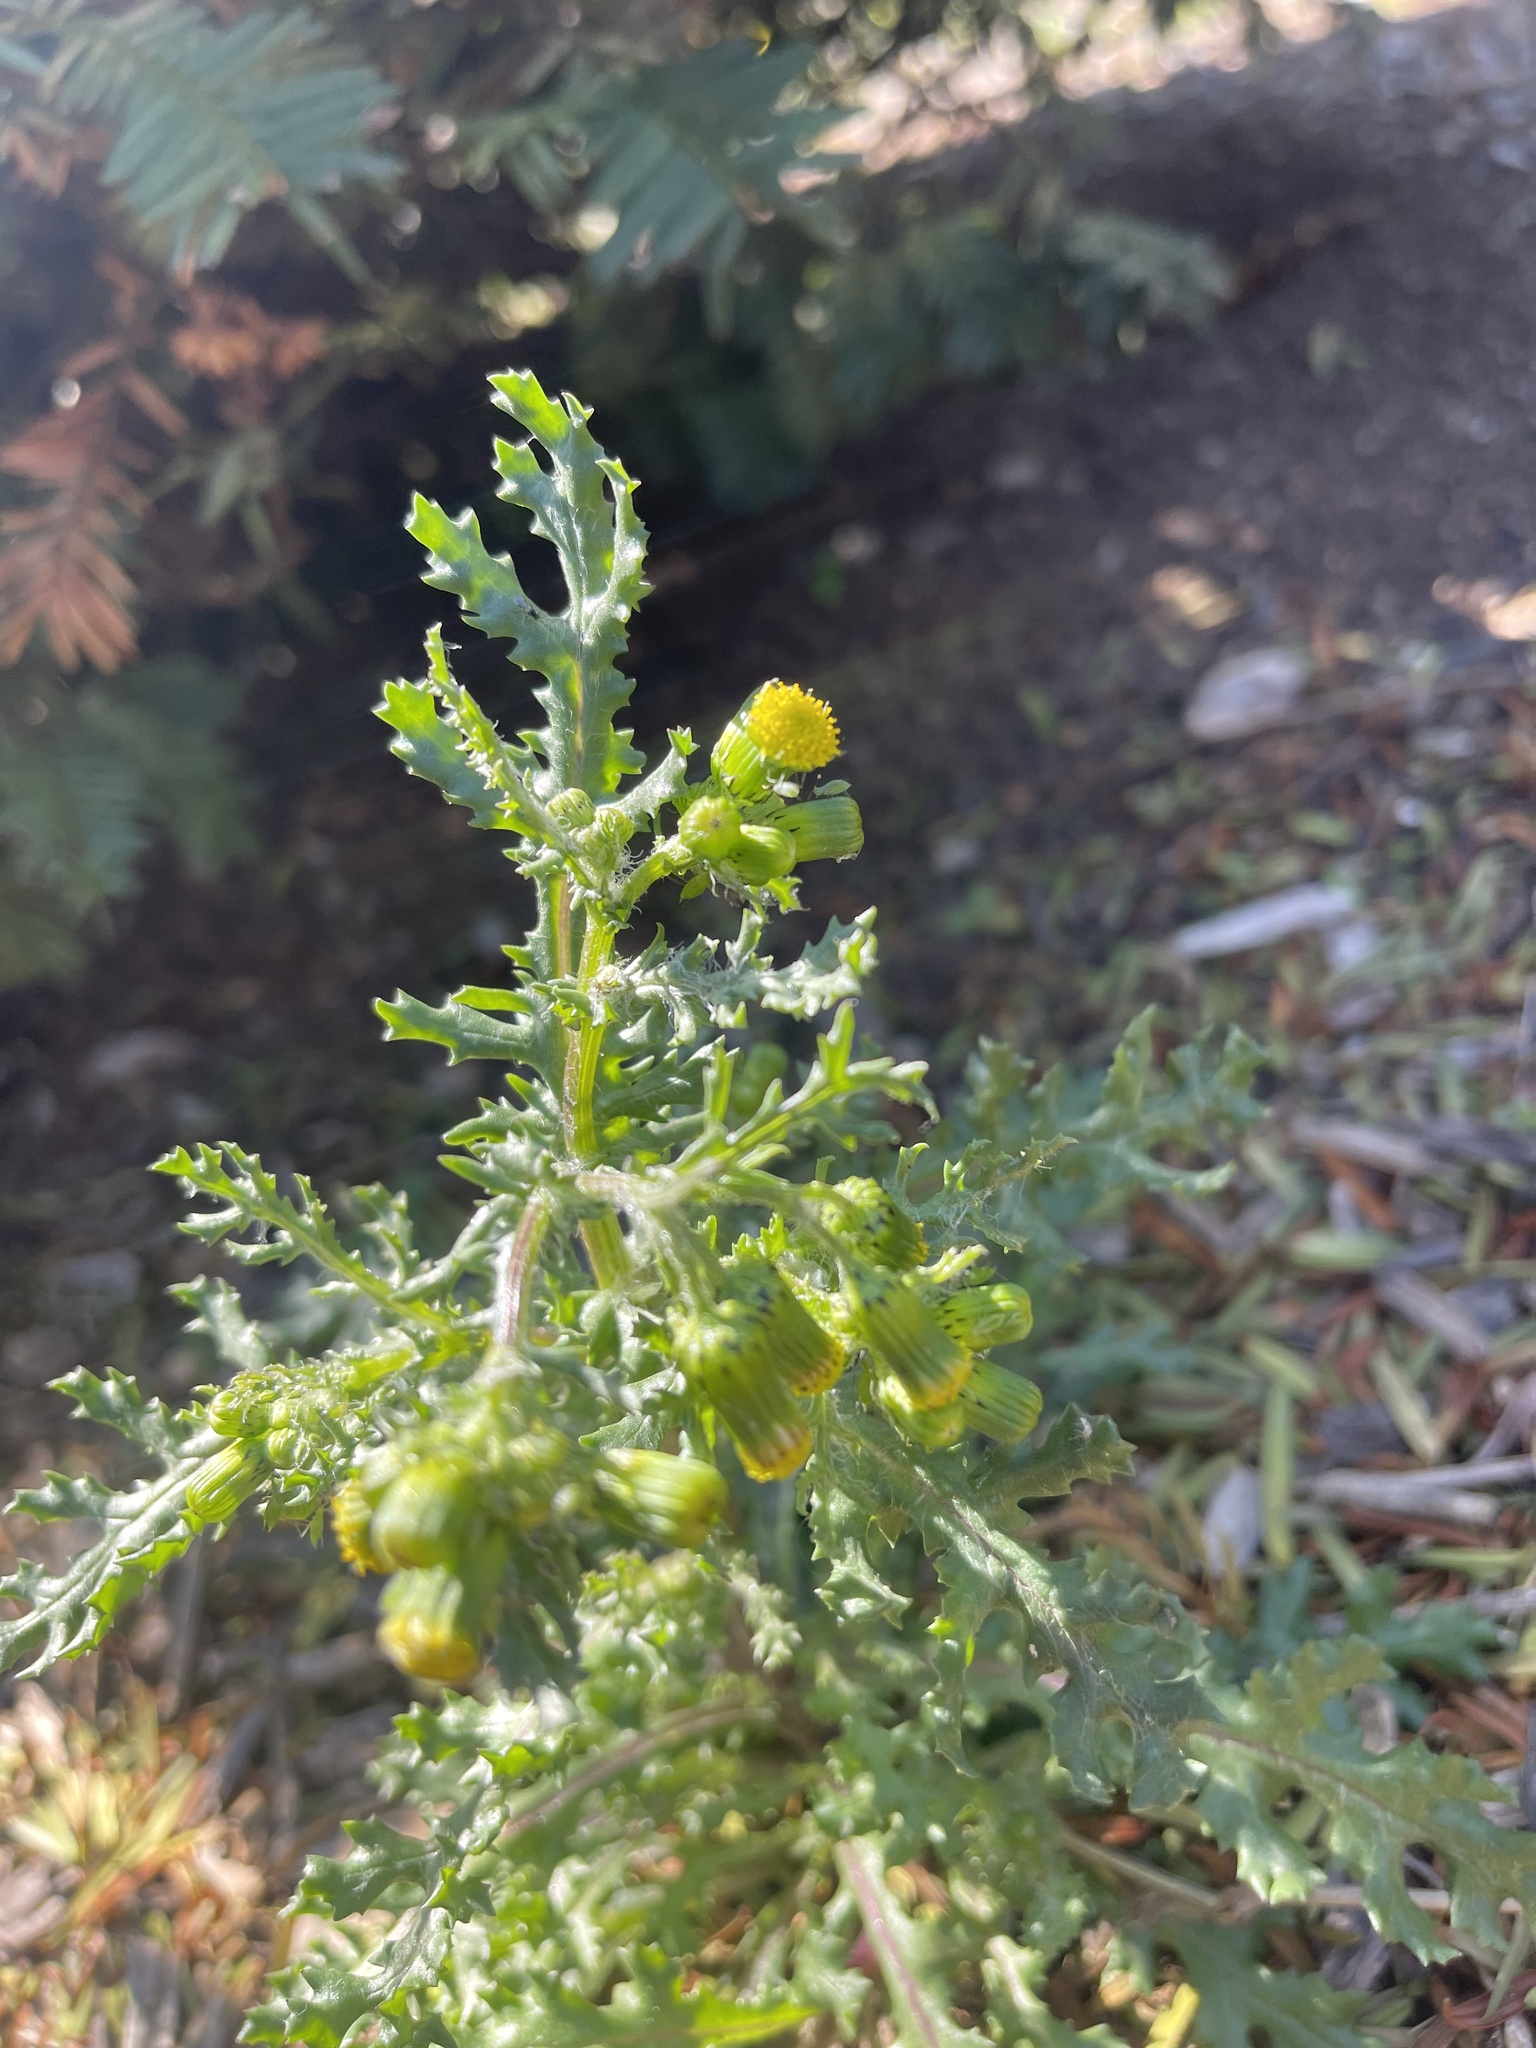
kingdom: Plantae
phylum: Tracheophyta
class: Magnoliopsida
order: Asterales
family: Asteraceae
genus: Senecio
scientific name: Senecio vulgaris
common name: Old-man-in-the-spring
